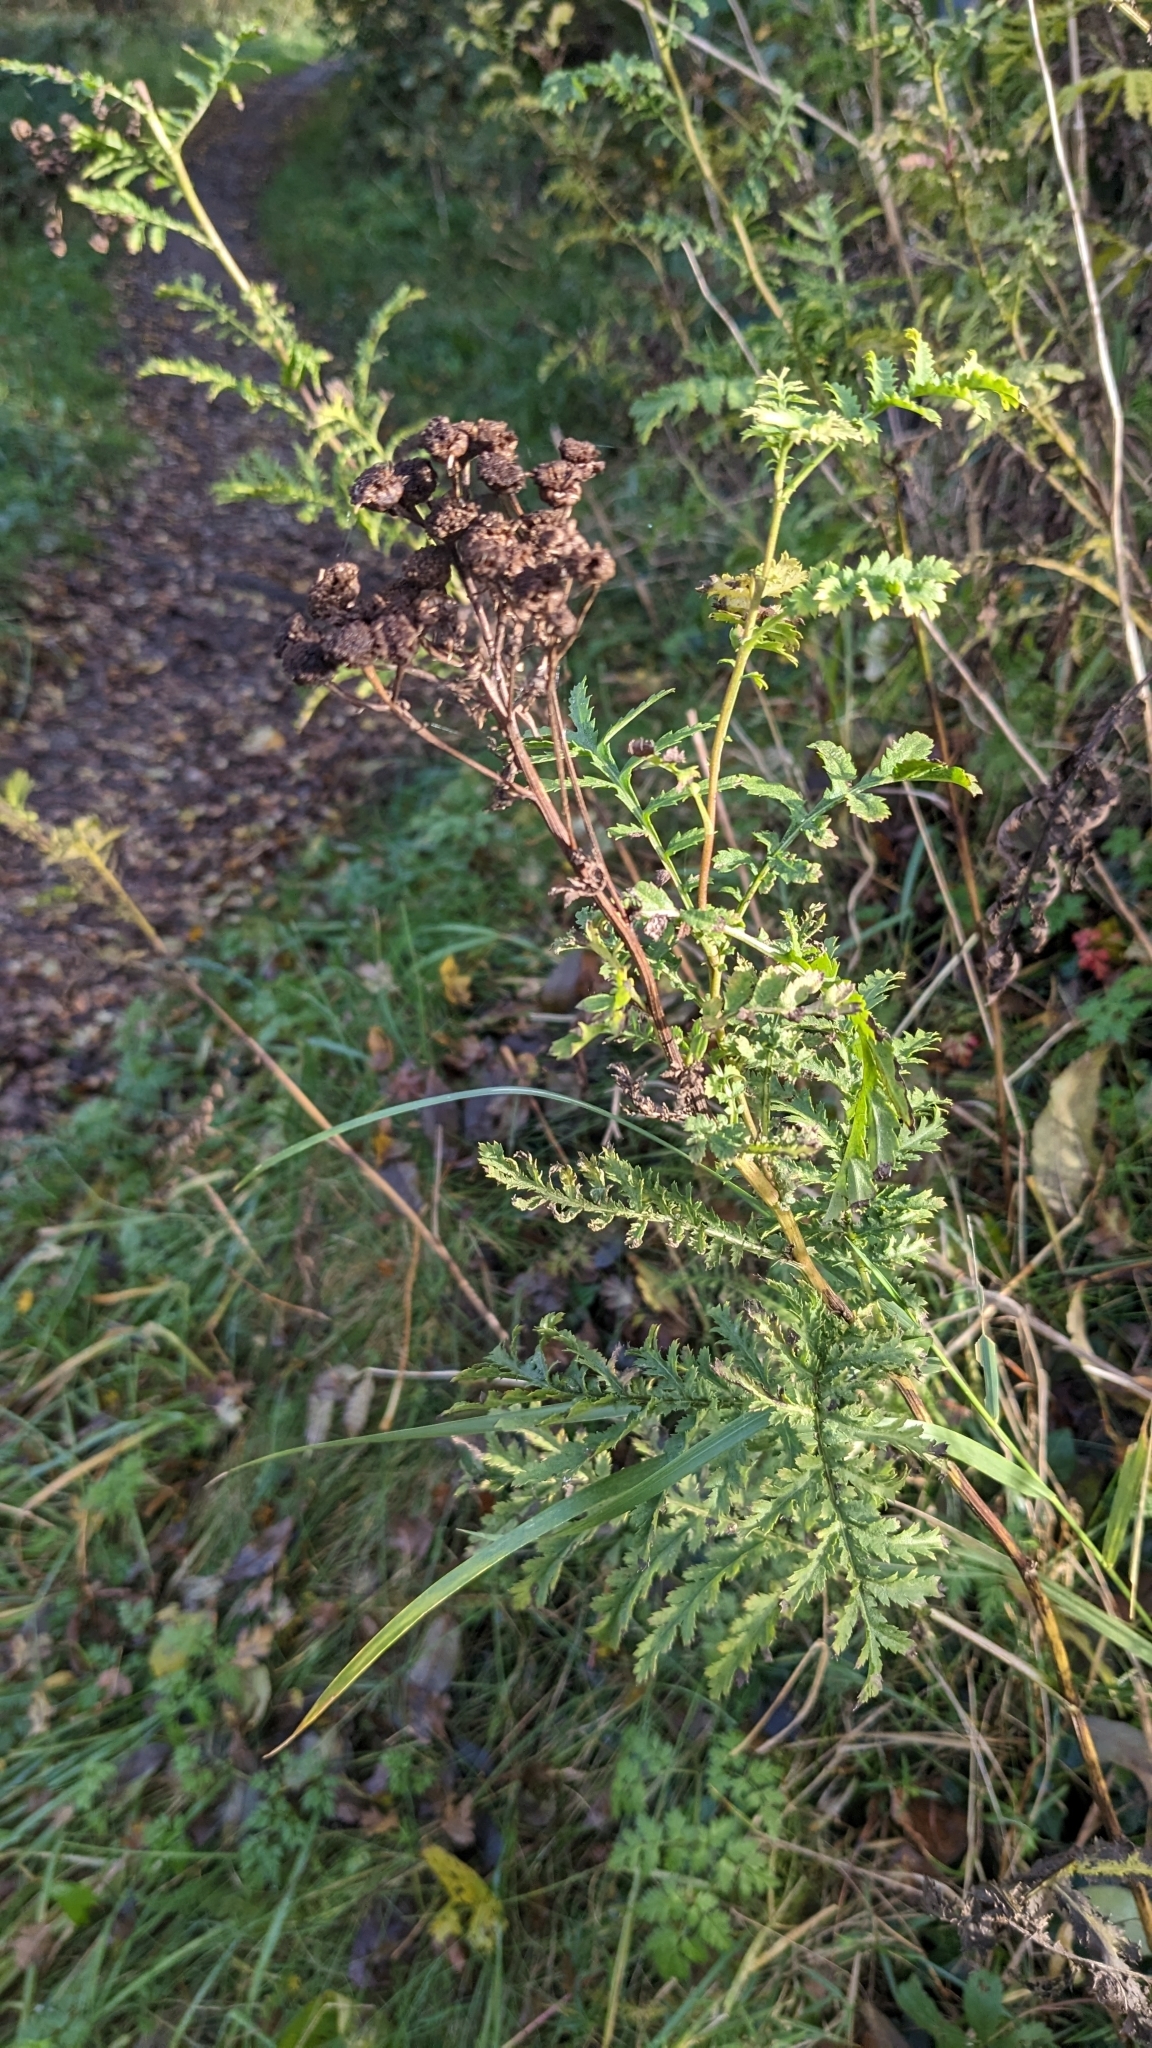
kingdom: Plantae
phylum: Tracheophyta
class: Magnoliopsida
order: Asterales
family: Asteraceae
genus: Tanacetum
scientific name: Tanacetum vulgare
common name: Common tansy
